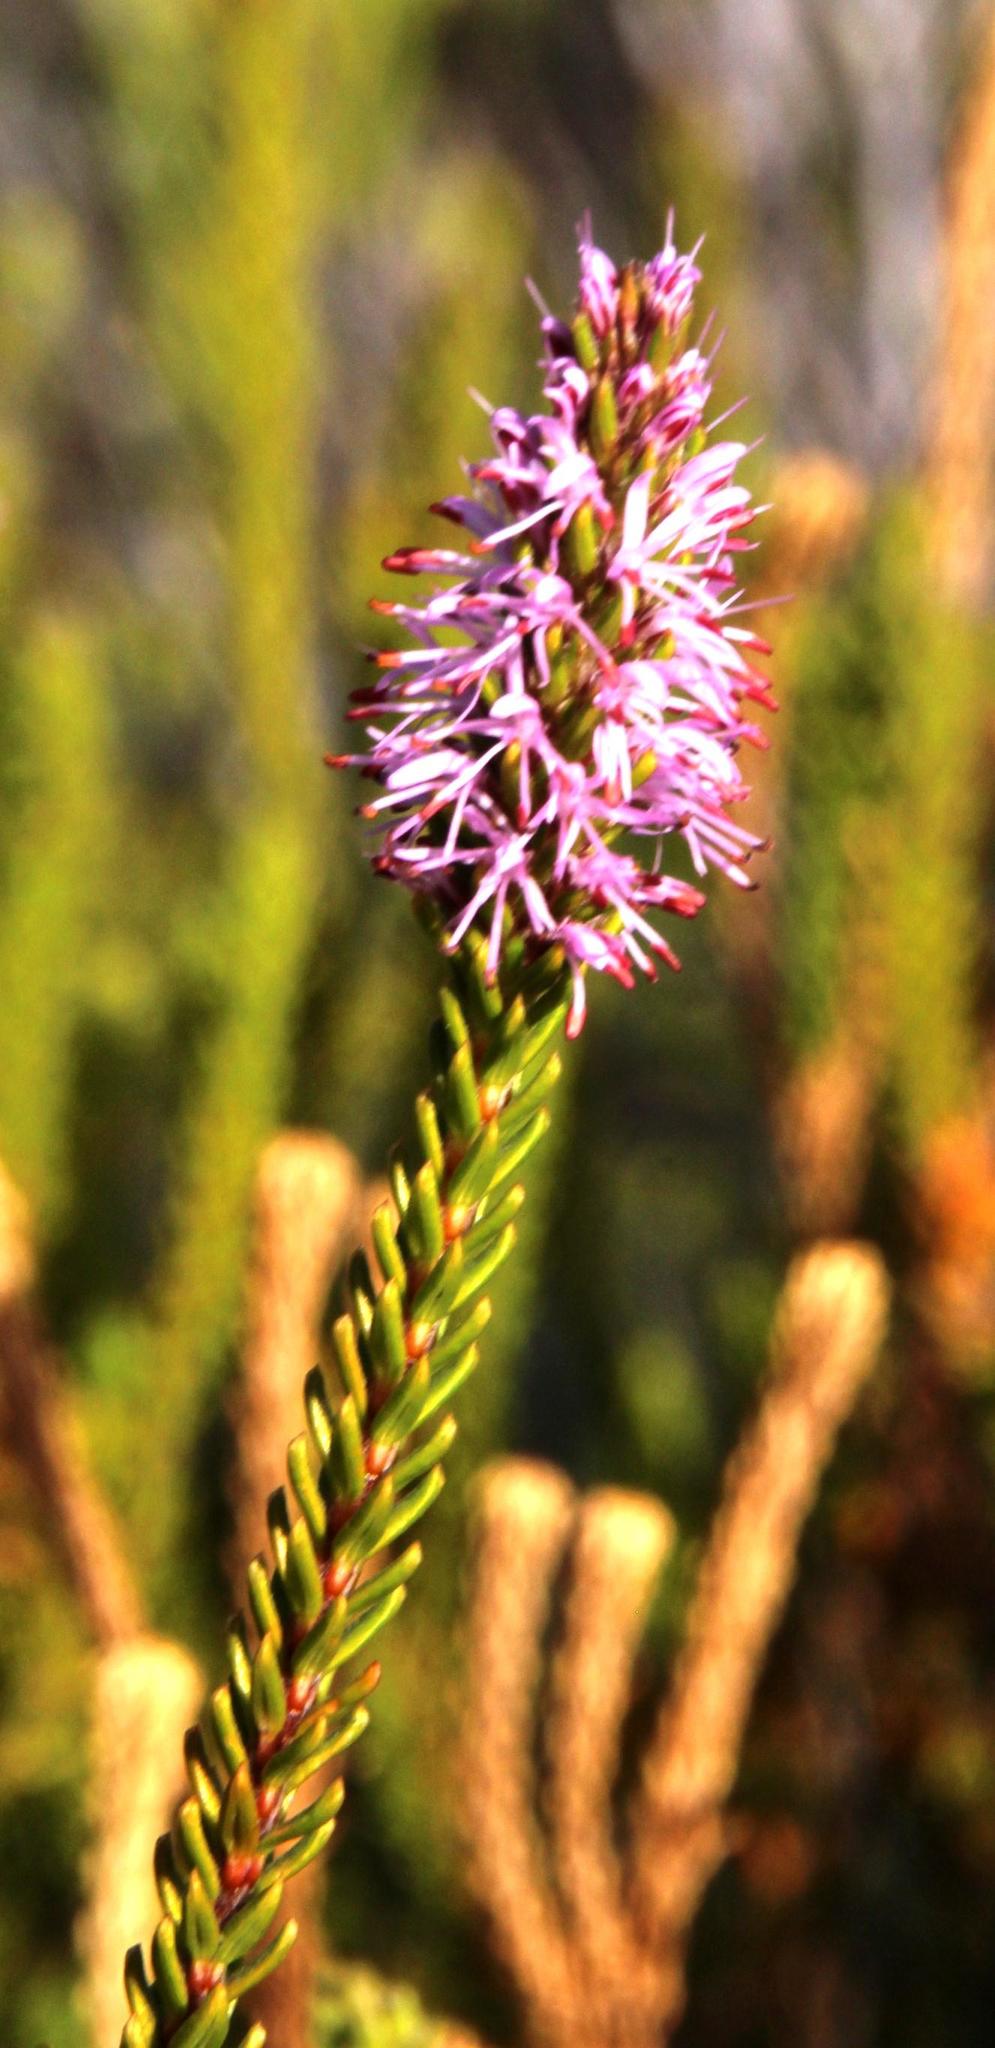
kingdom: Plantae
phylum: Tracheophyta
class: Magnoliopsida
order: Lamiales
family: Stilbaceae
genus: Stilbe
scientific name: Stilbe ericoides
